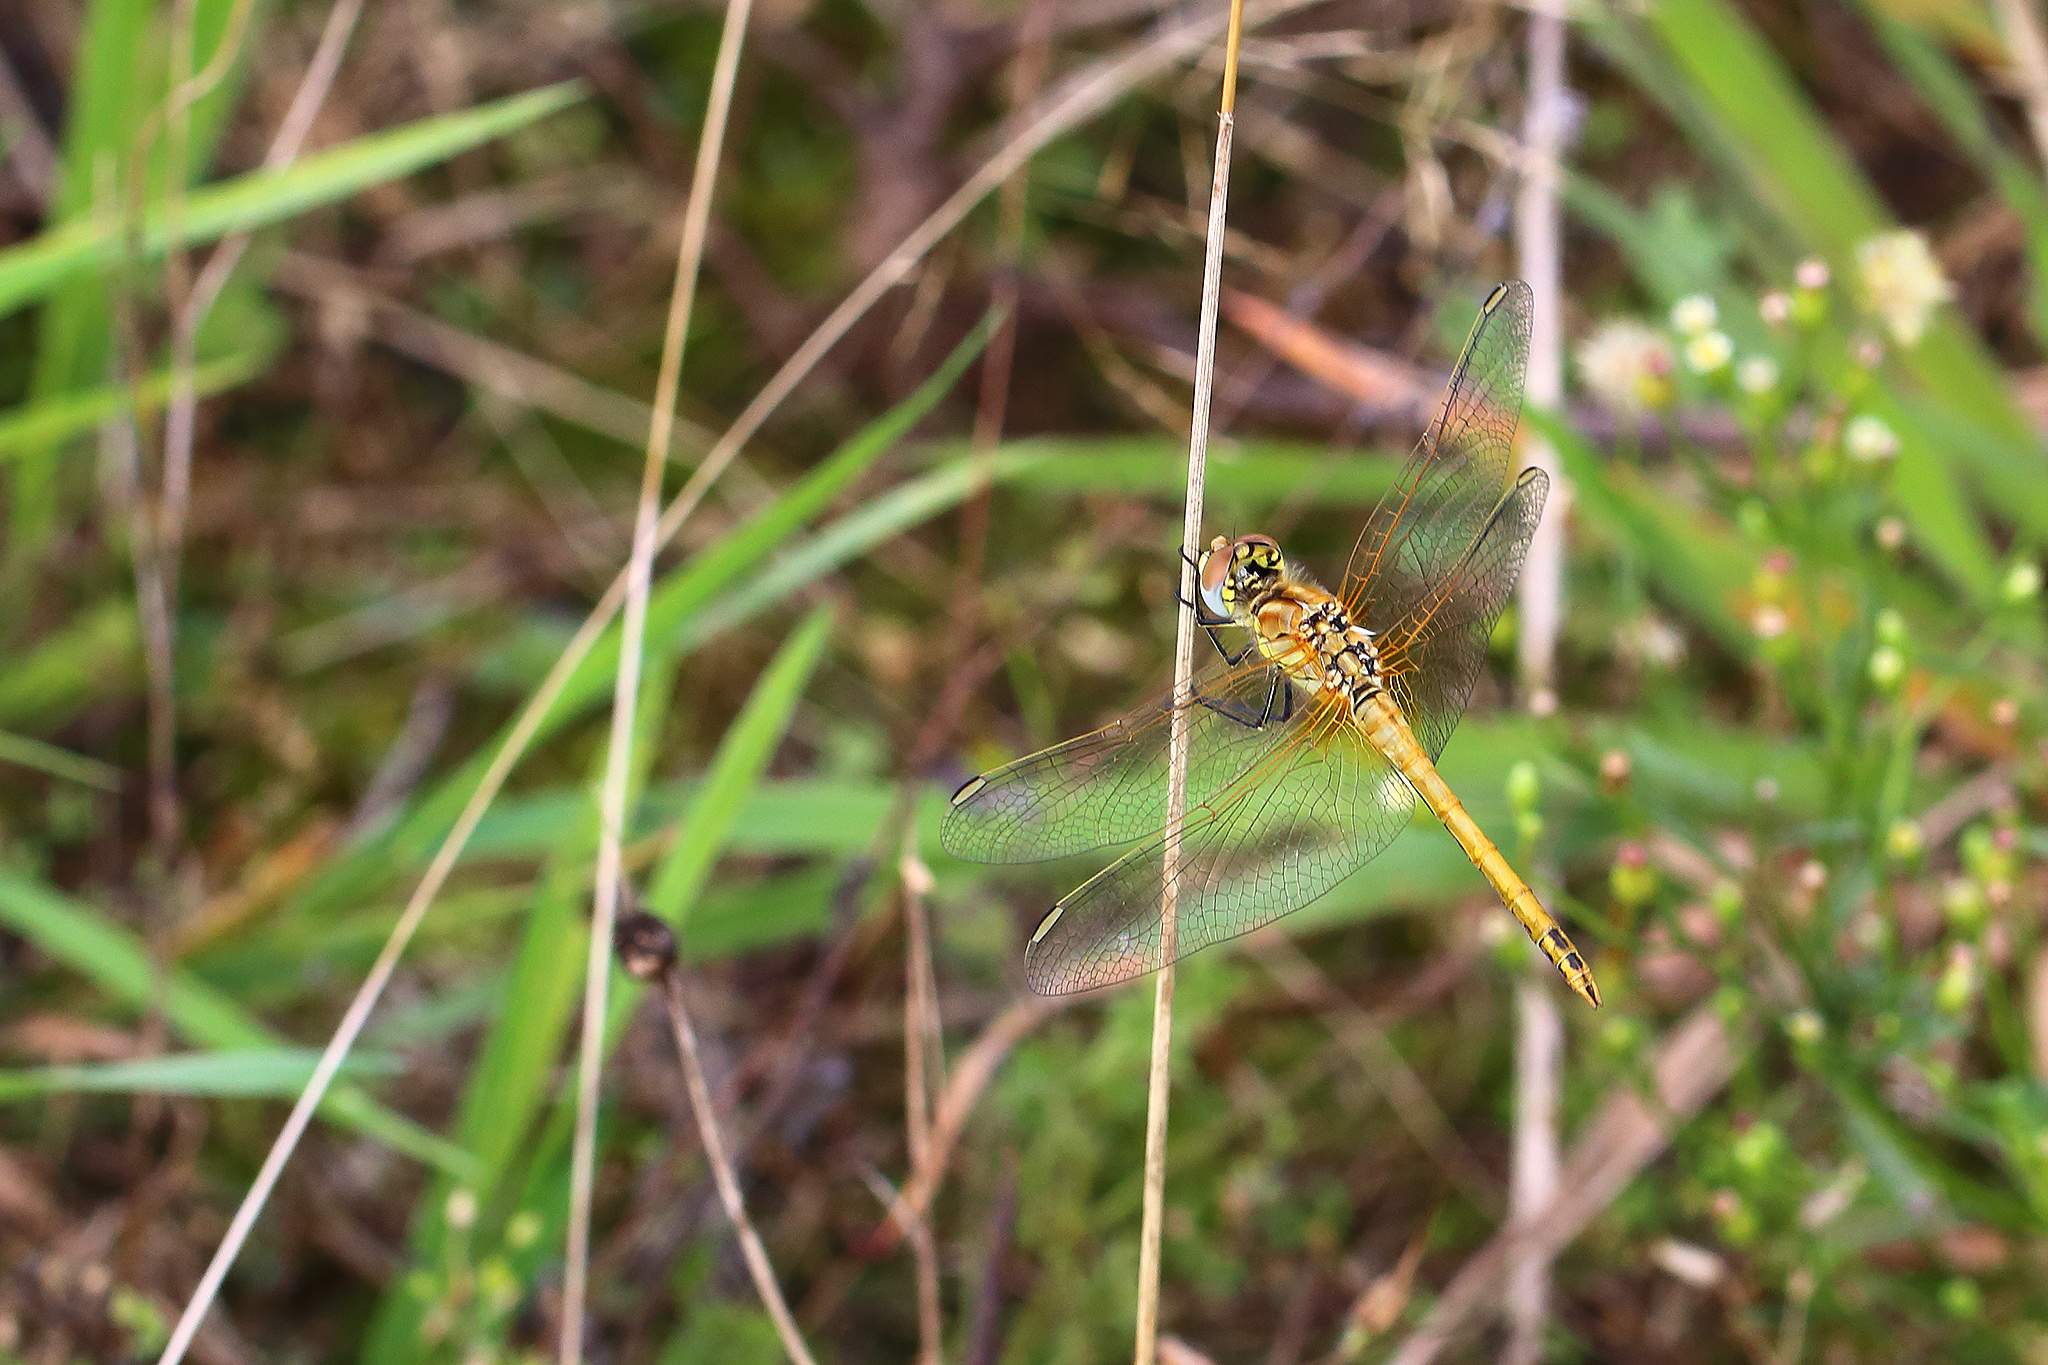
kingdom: Animalia
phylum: Arthropoda
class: Insecta
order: Odonata
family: Libellulidae
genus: Sympetrum
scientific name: Sympetrum fonscolombii
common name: Red-veined darter
